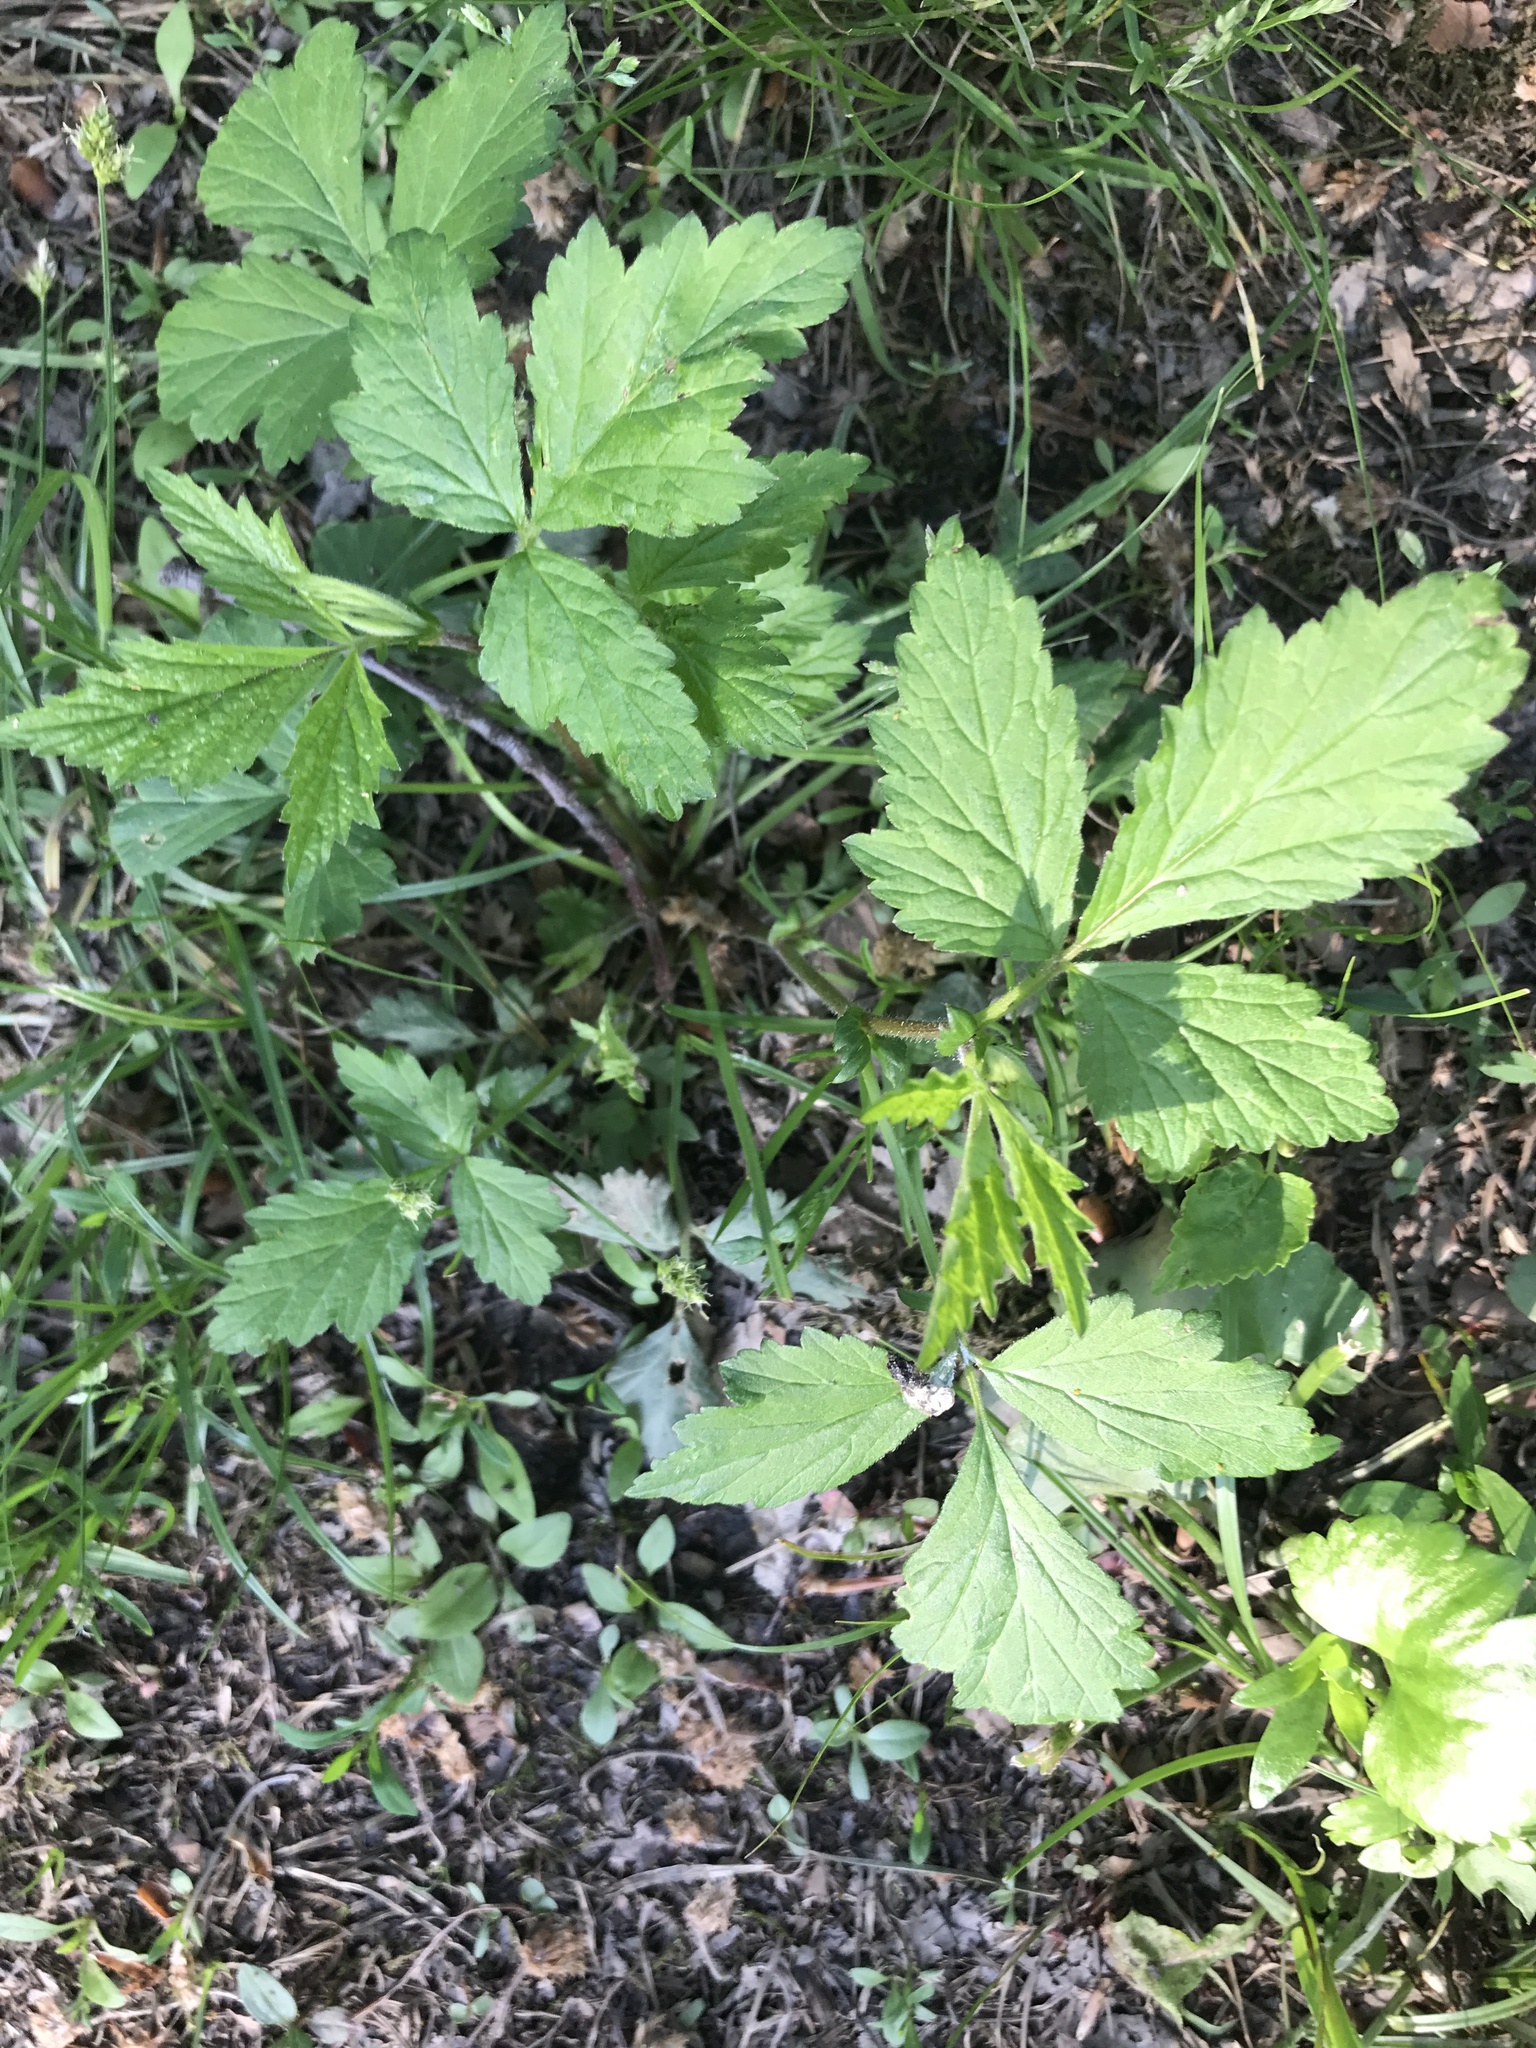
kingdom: Plantae
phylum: Tracheophyta
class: Magnoliopsida
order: Rosales
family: Rosaceae
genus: Geum
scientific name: Geum canadense
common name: White avens
